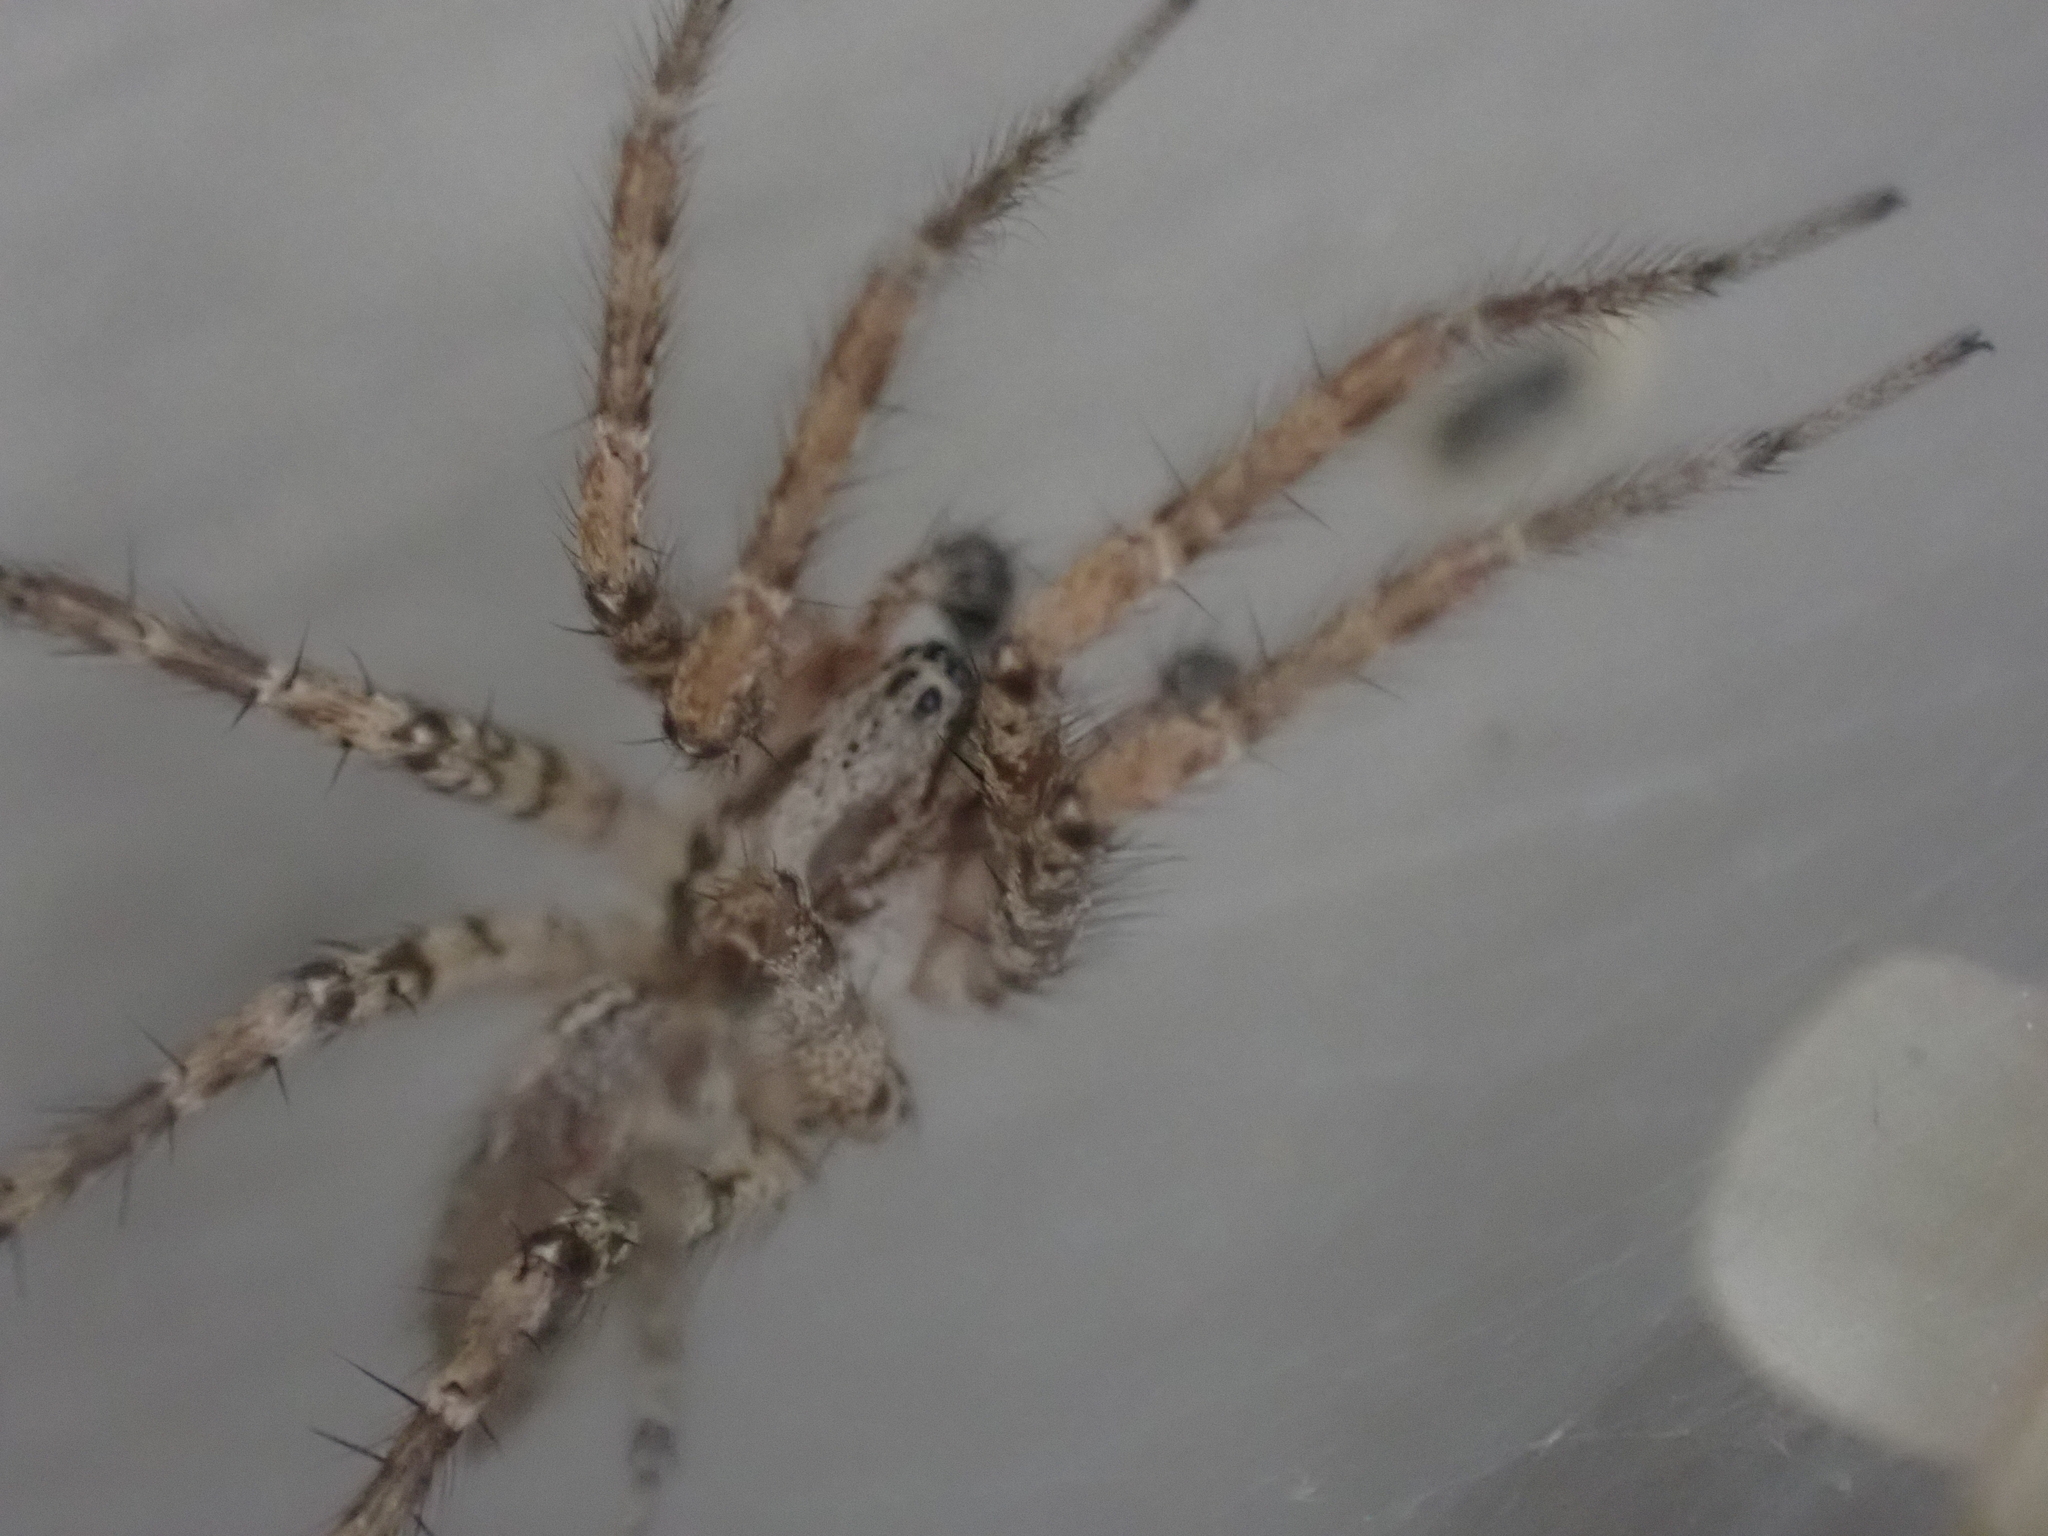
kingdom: Animalia
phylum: Arthropoda
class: Arachnida
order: Araneae
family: Agelenidae
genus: Barronopsis
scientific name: Barronopsis texana
